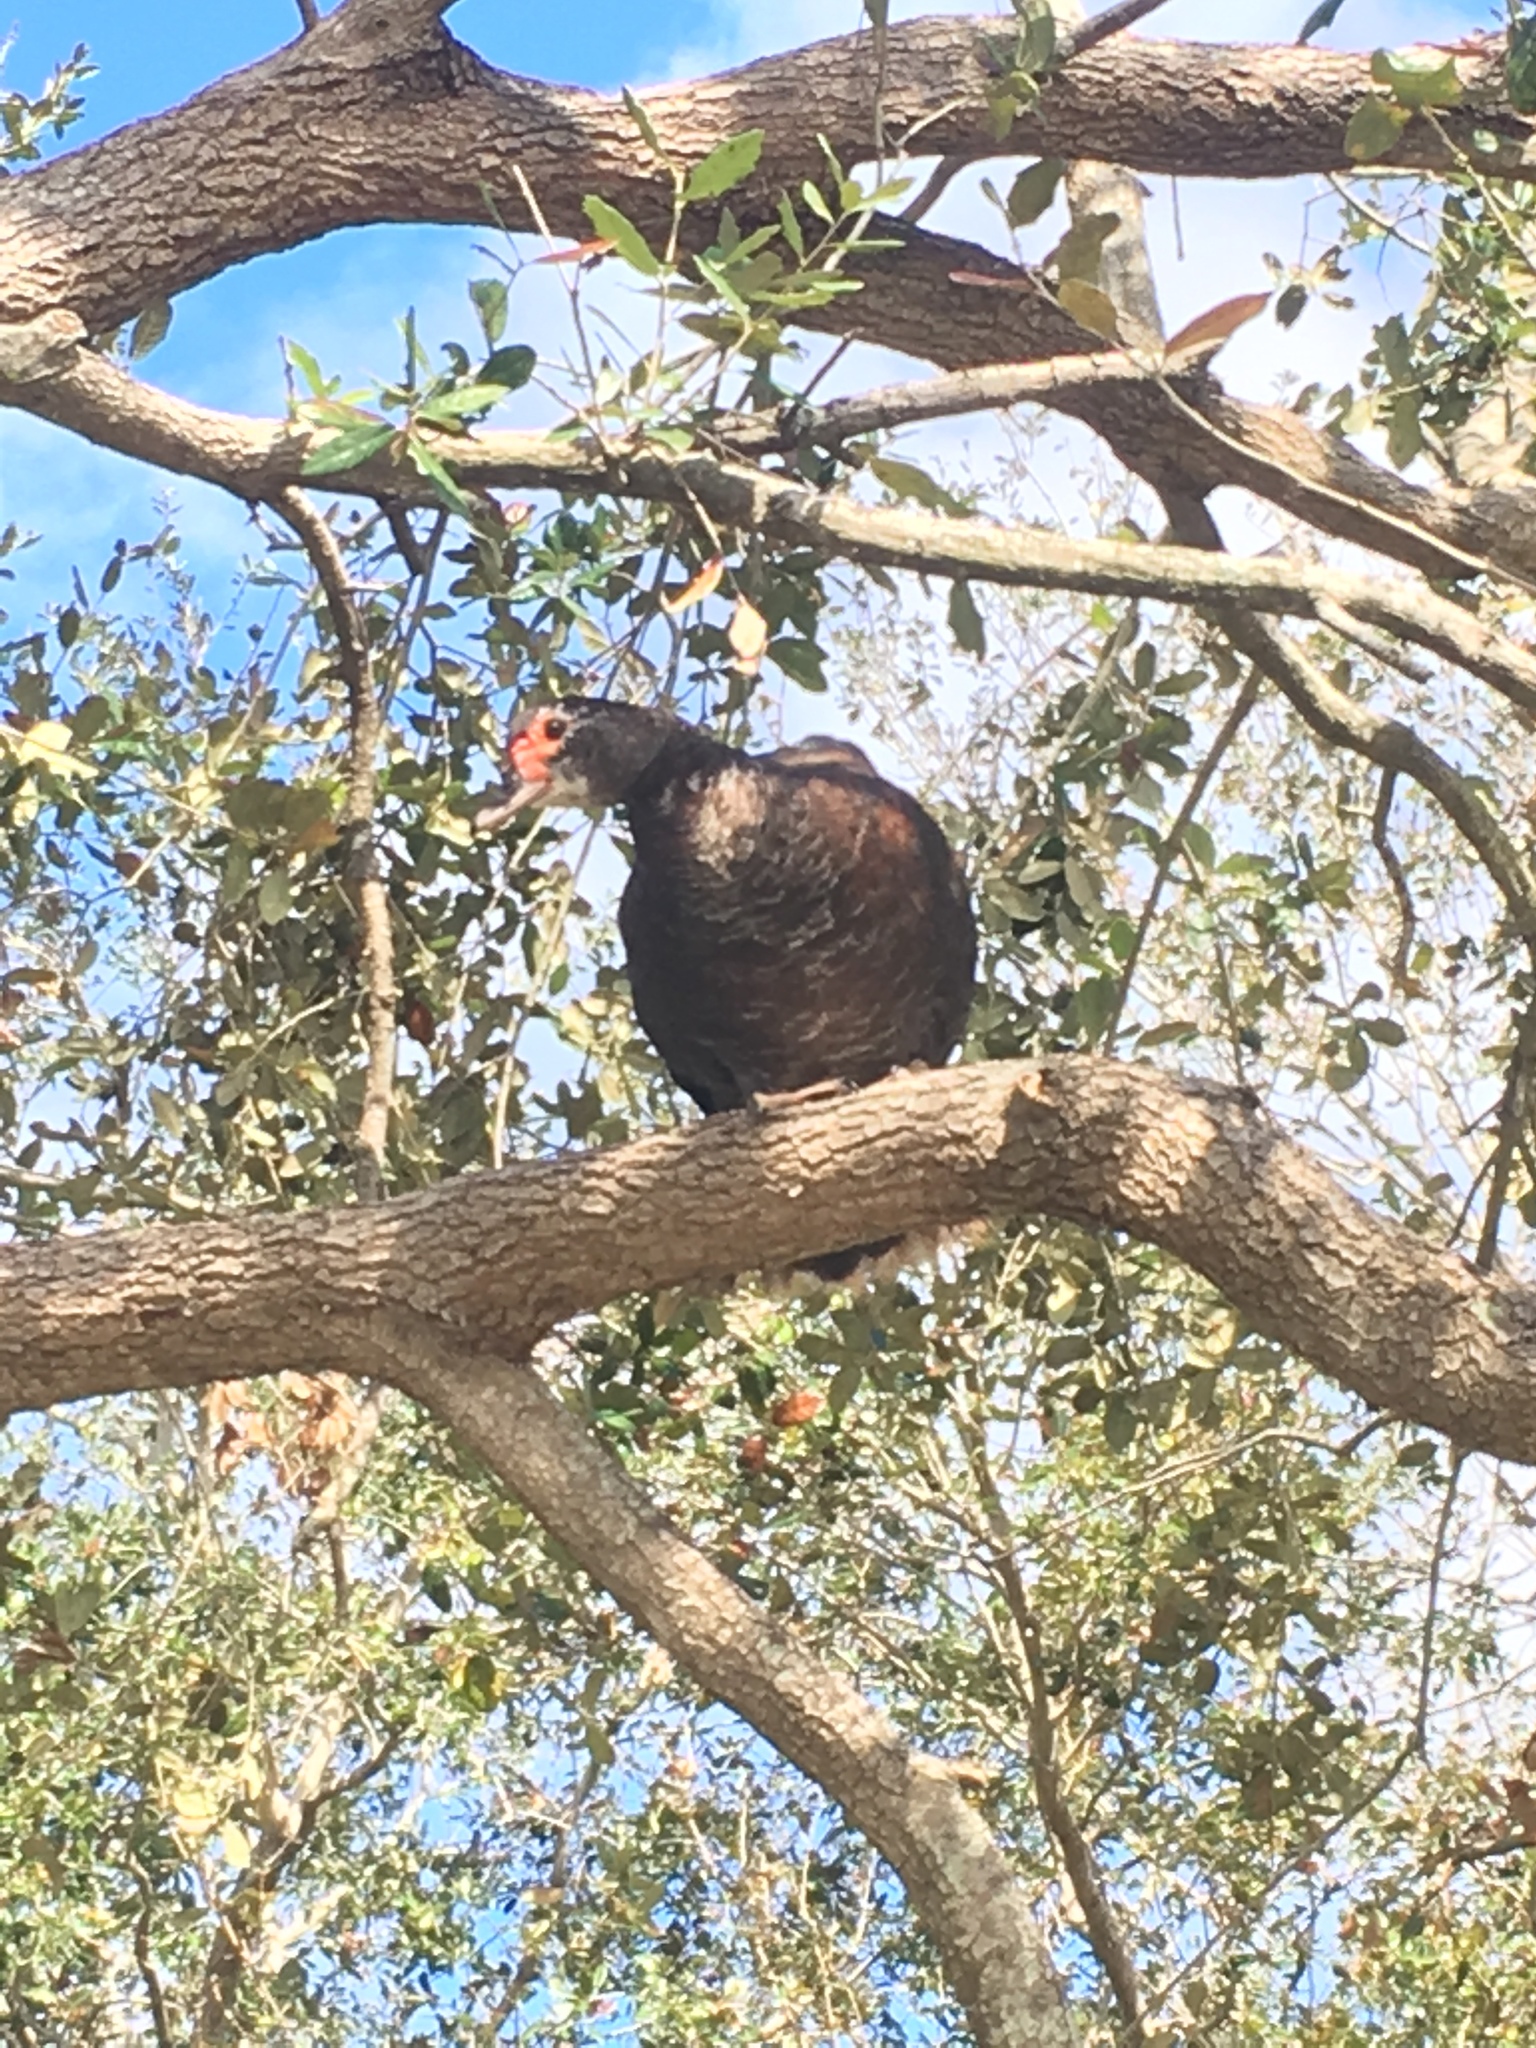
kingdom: Animalia
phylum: Chordata
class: Aves
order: Anseriformes
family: Anatidae
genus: Cairina
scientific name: Cairina moschata
